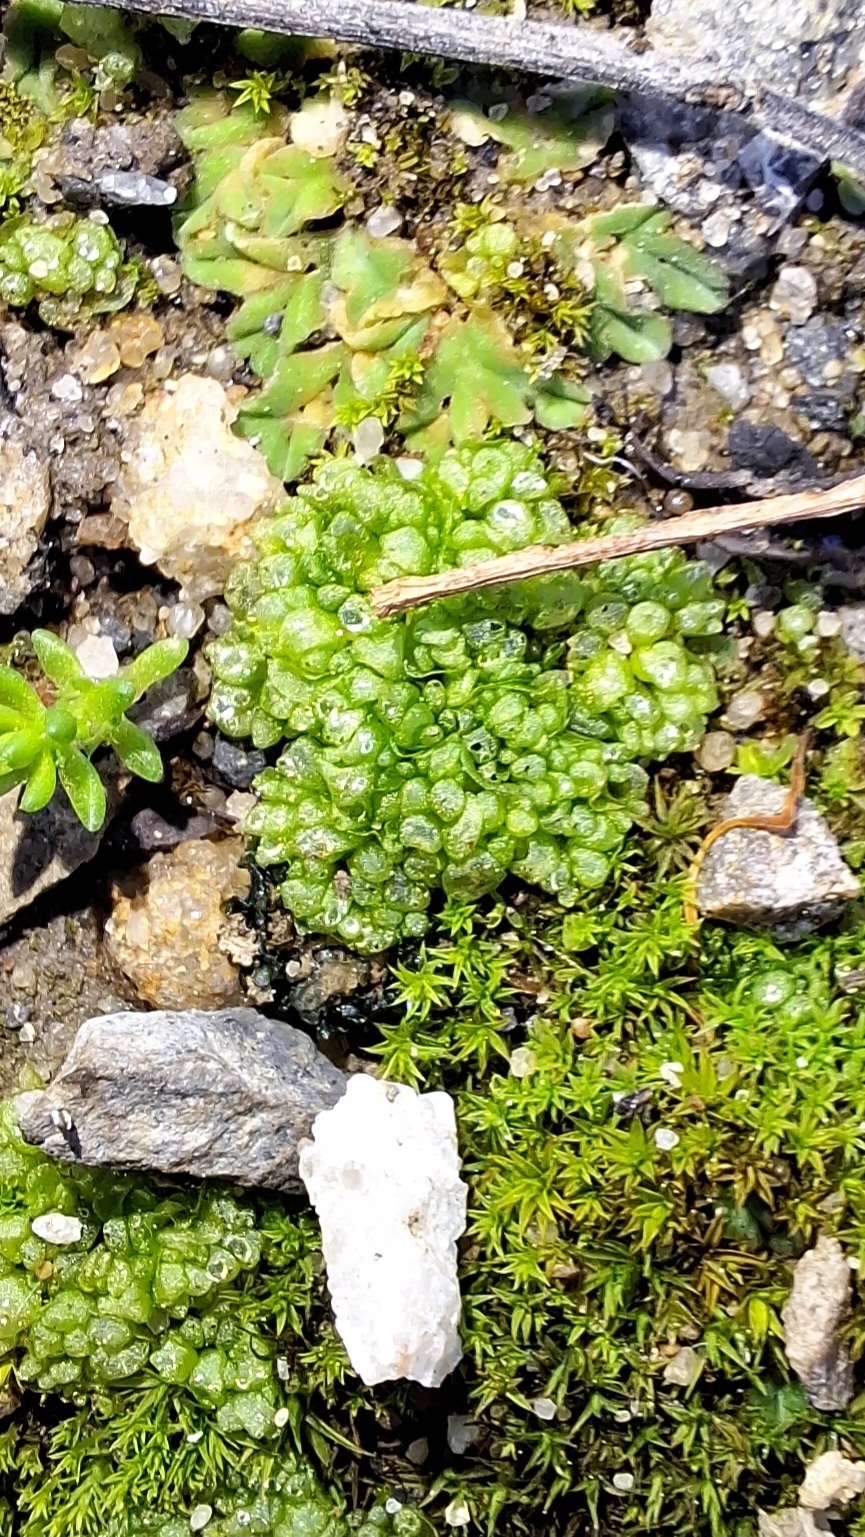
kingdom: Plantae
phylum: Marchantiophyta
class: Marchantiopsida
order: Sphaerocarpales
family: Sphaerocarpaceae
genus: Sphaerocarpos
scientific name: Sphaerocarpos texanus
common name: Texas balloonwort
